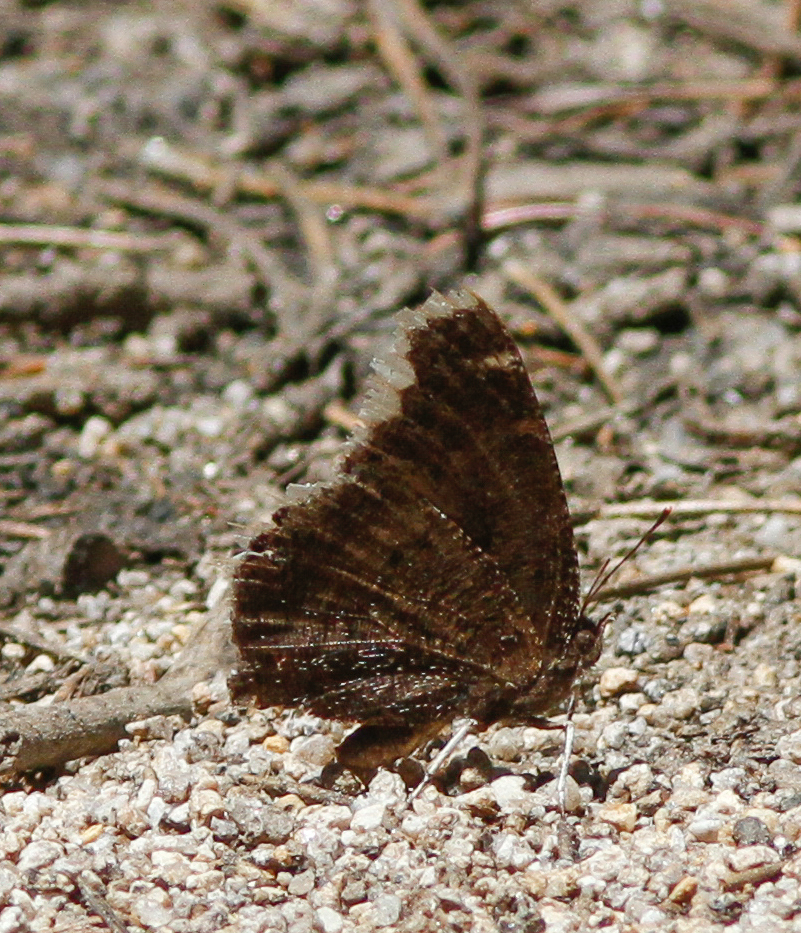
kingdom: Animalia
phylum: Arthropoda
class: Insecta
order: Lepidoptera
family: Nymphalidae
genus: Nymphalis
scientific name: Nymphalis antiopa
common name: Camberwell beauty
